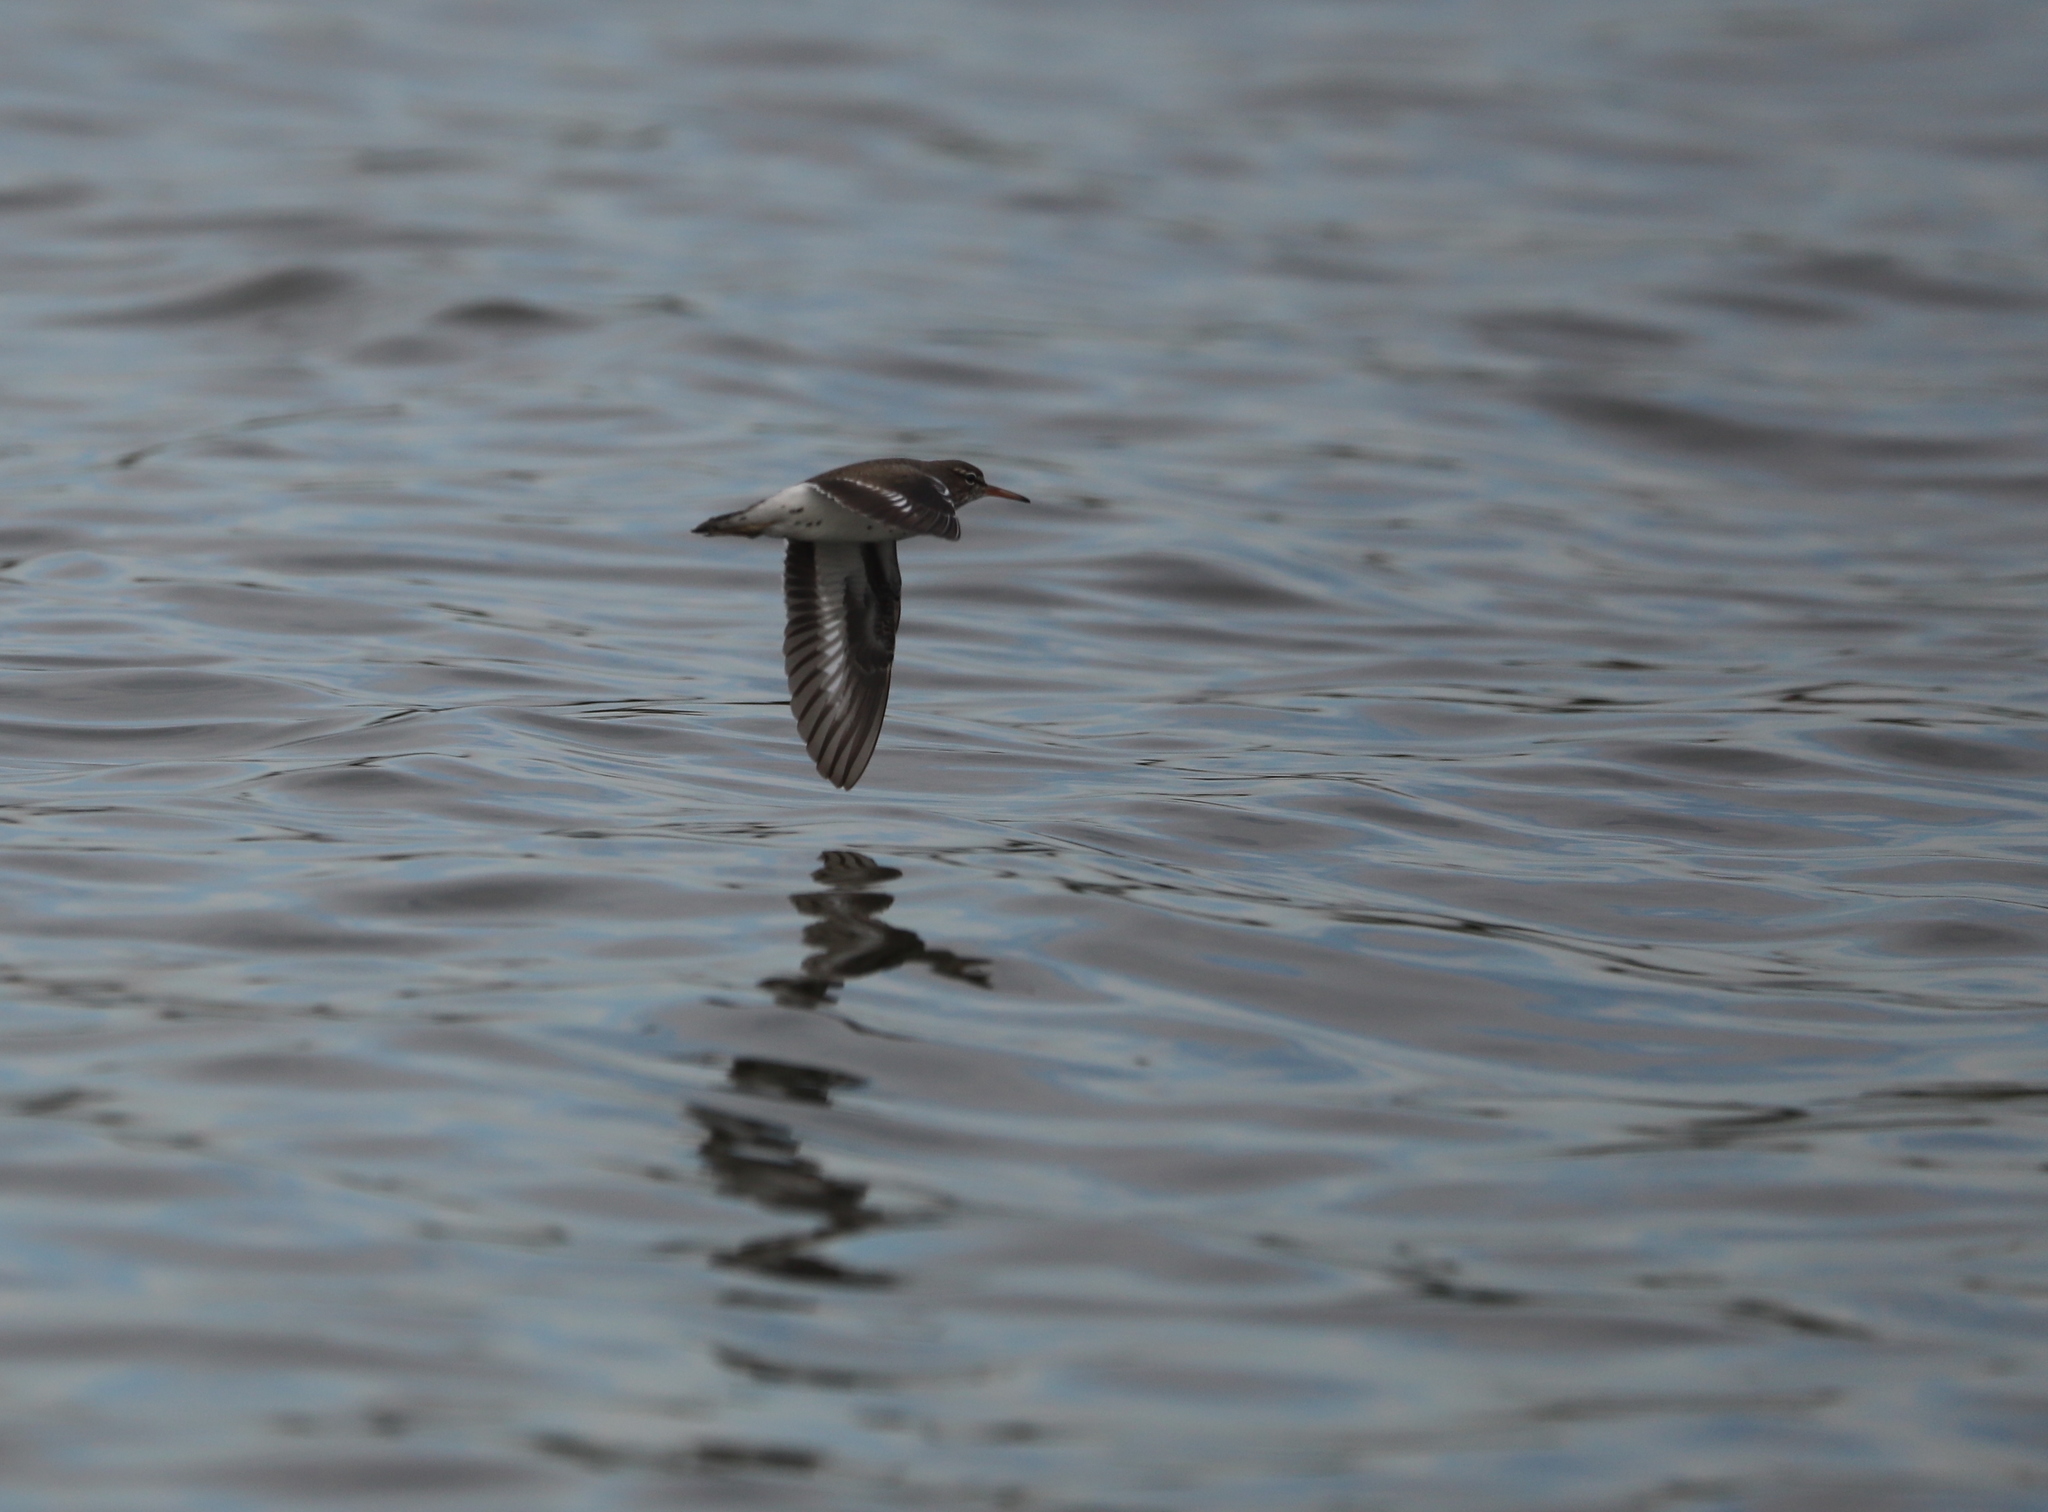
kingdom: Animalia
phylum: Chordata
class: Aves
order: Charadriiformes
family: Scolopacidae
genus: Actitis
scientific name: Actitis macularius
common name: Spotted sandpiper
